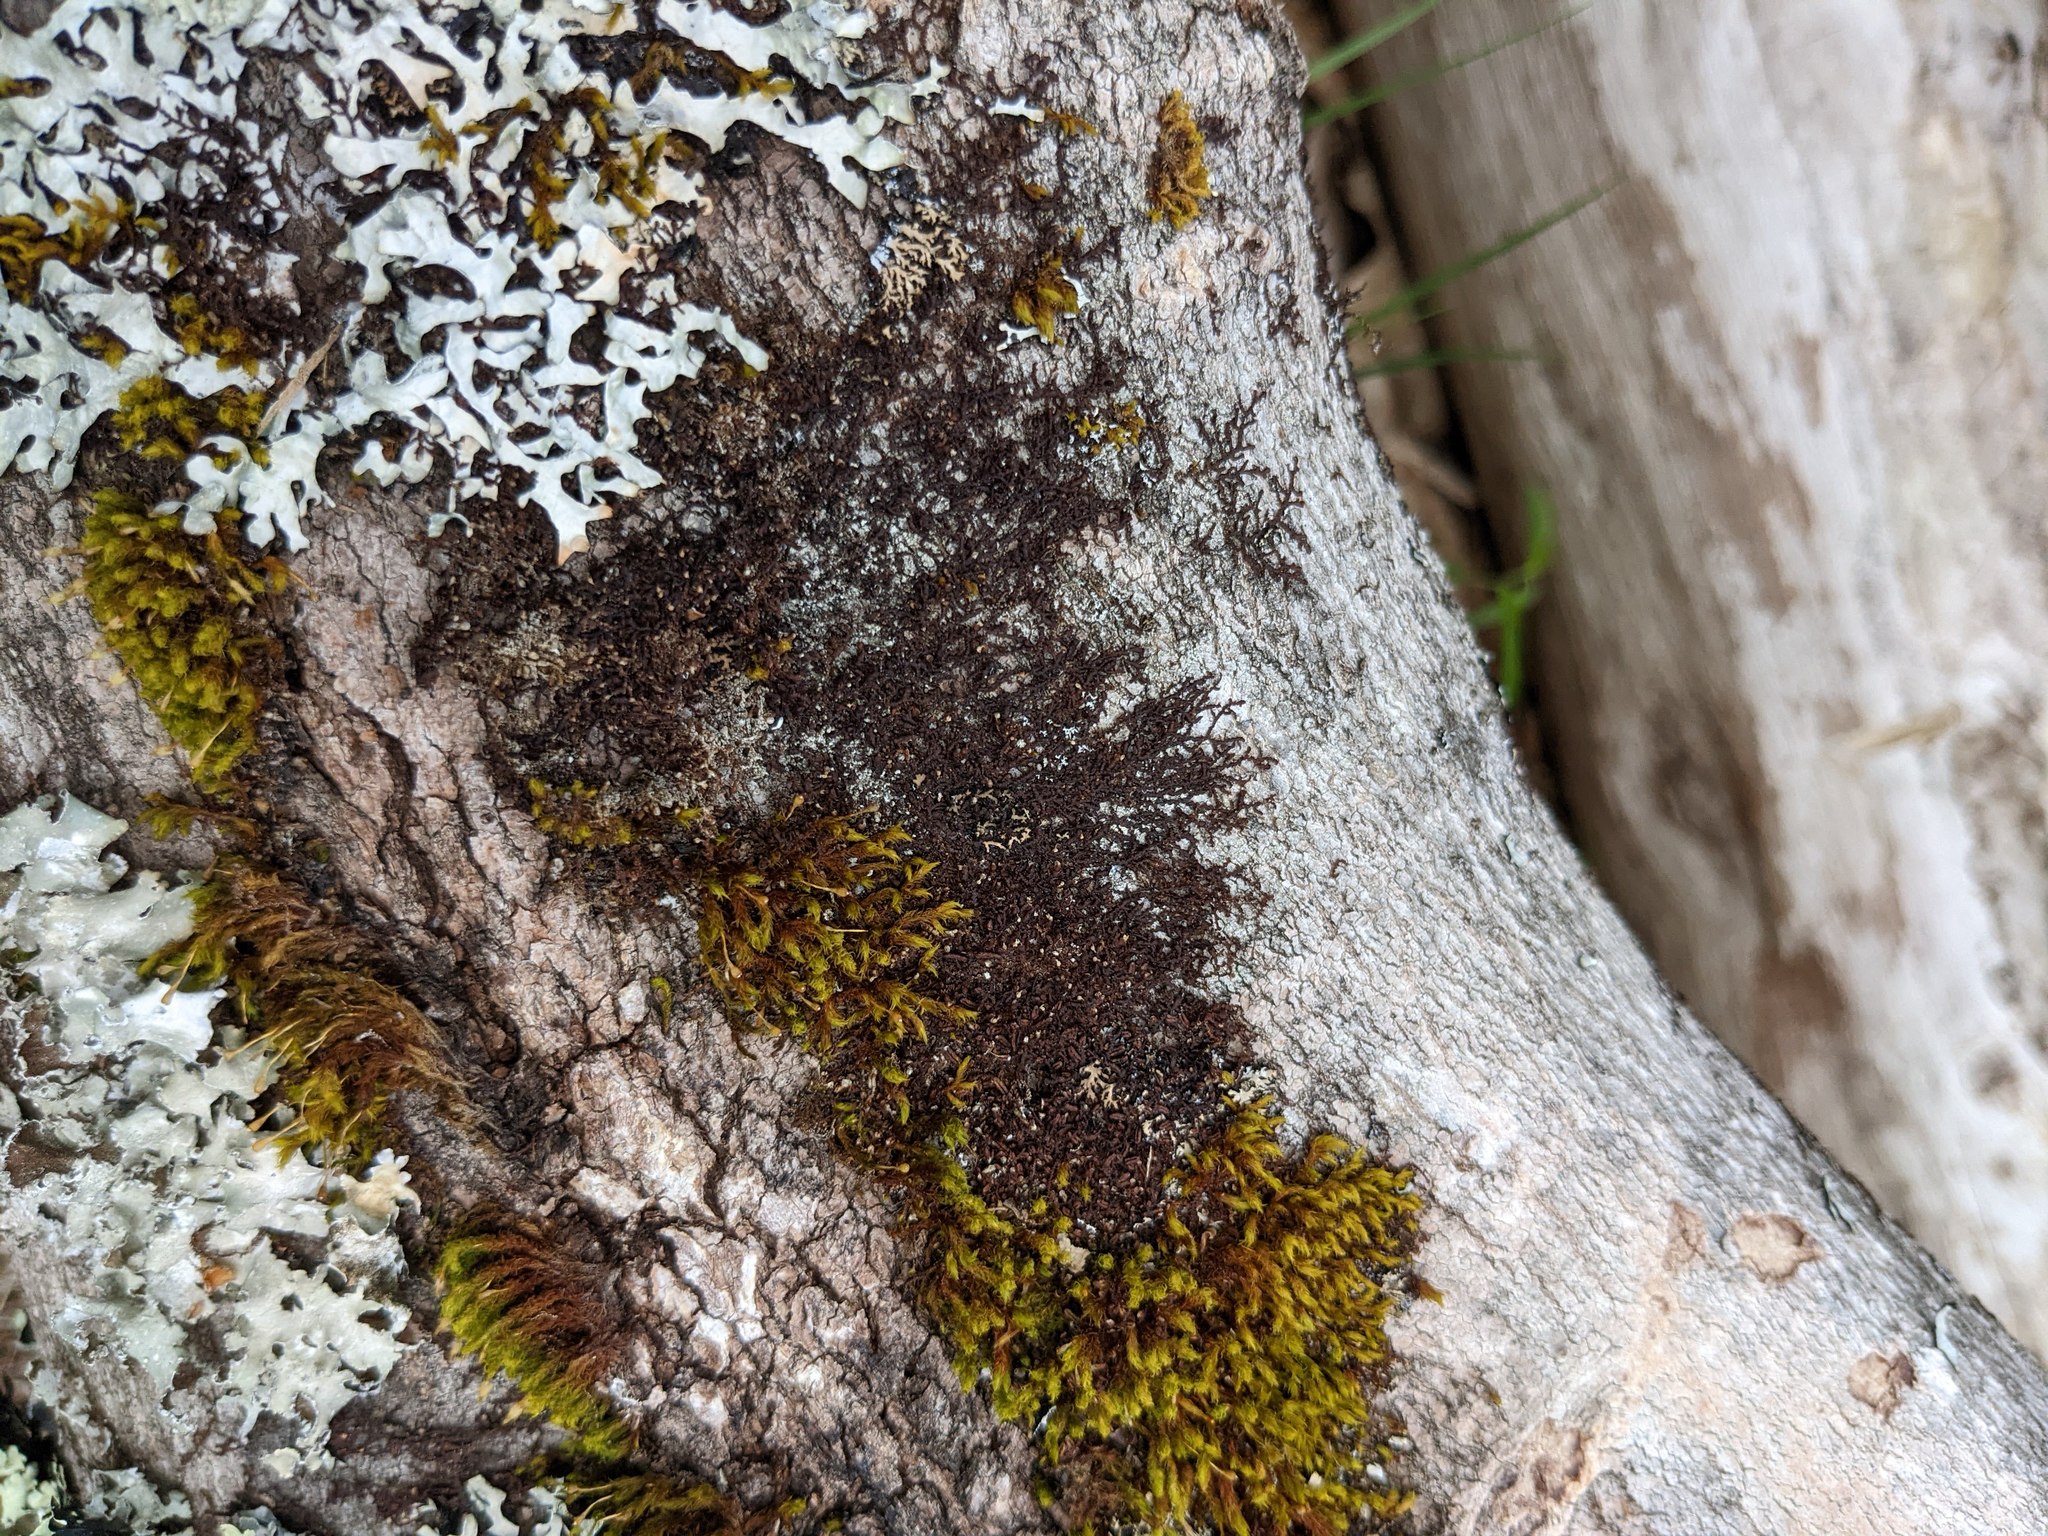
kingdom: Plantae
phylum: Marchantiophyta
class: Jungermanniopsida
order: Porellales
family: Frullaniaceae
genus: Frullania
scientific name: Frullania eboracensis
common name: New york scalewort
